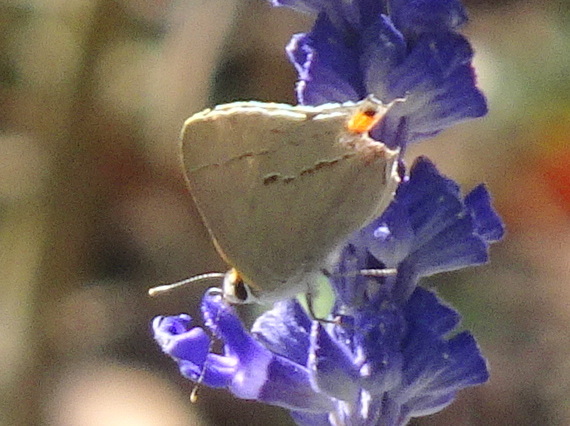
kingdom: Animalia
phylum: Arthropoda
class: Insecta
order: Lepidoptera
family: Lycaenidae
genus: Strymon
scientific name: Strymon melinus
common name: Gray hairstreak
